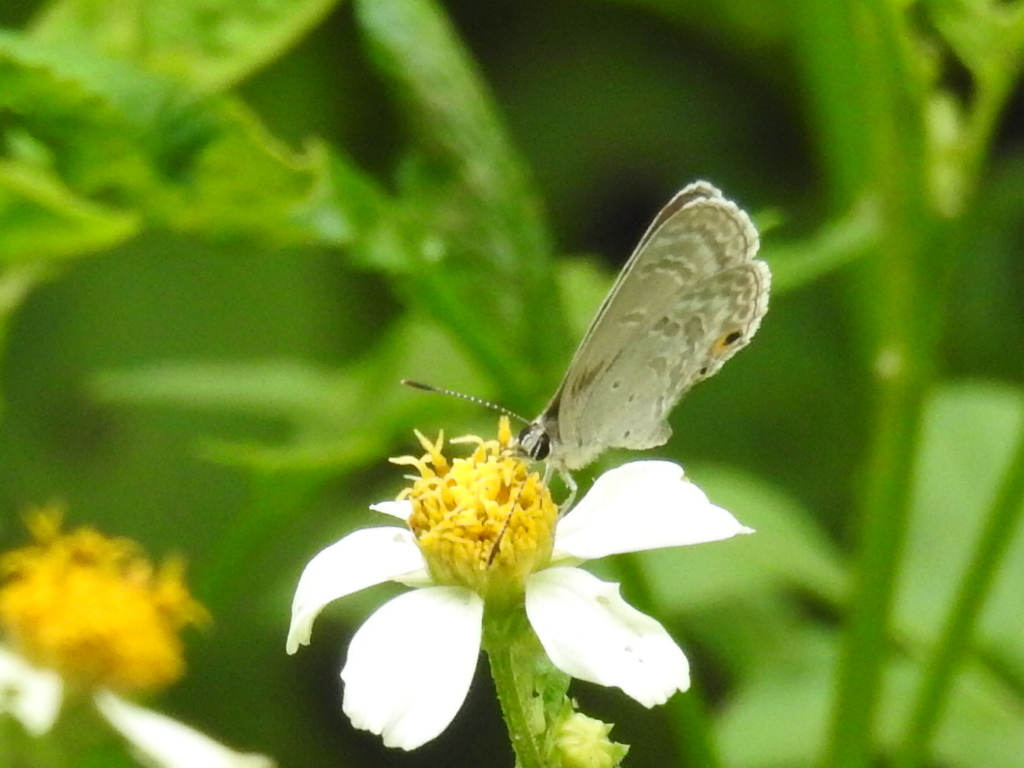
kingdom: Animalia
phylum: Arthropoda
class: Insecta
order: Lepidoptera
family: Lycaenidae
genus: Luthrodes
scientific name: Luthrodes pandava
